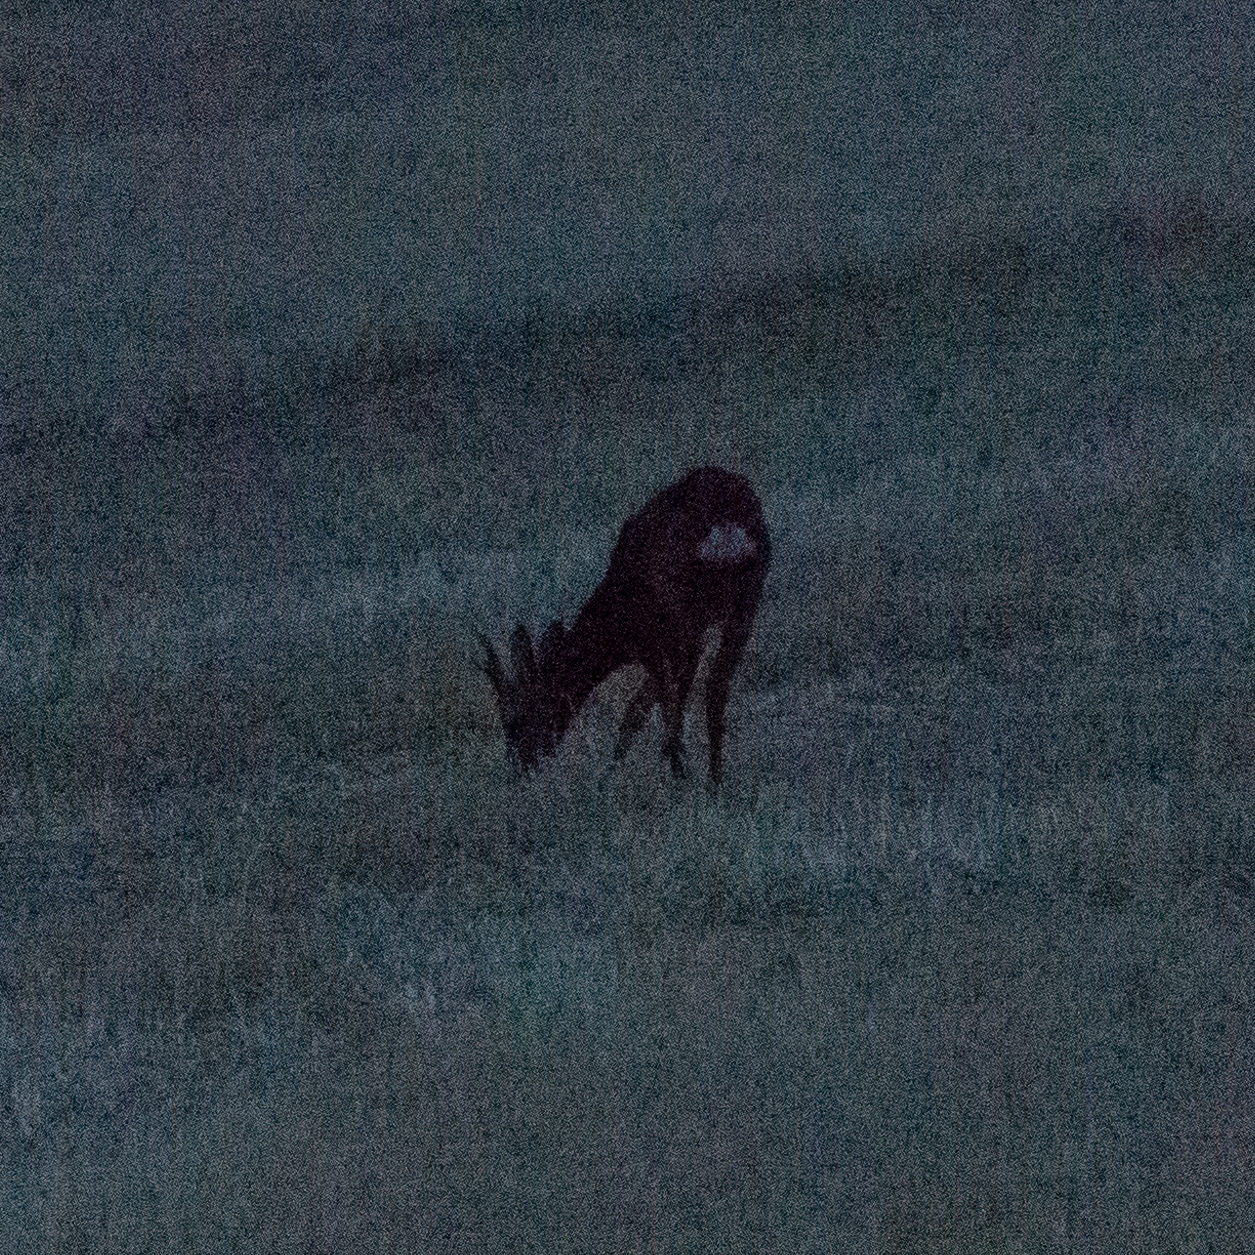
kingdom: Animalia
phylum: Chordata
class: Mammalia
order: Artiodactyla
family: Cervidae
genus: Capreolus
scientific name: Capreolus capreolus
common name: Western roe deer
